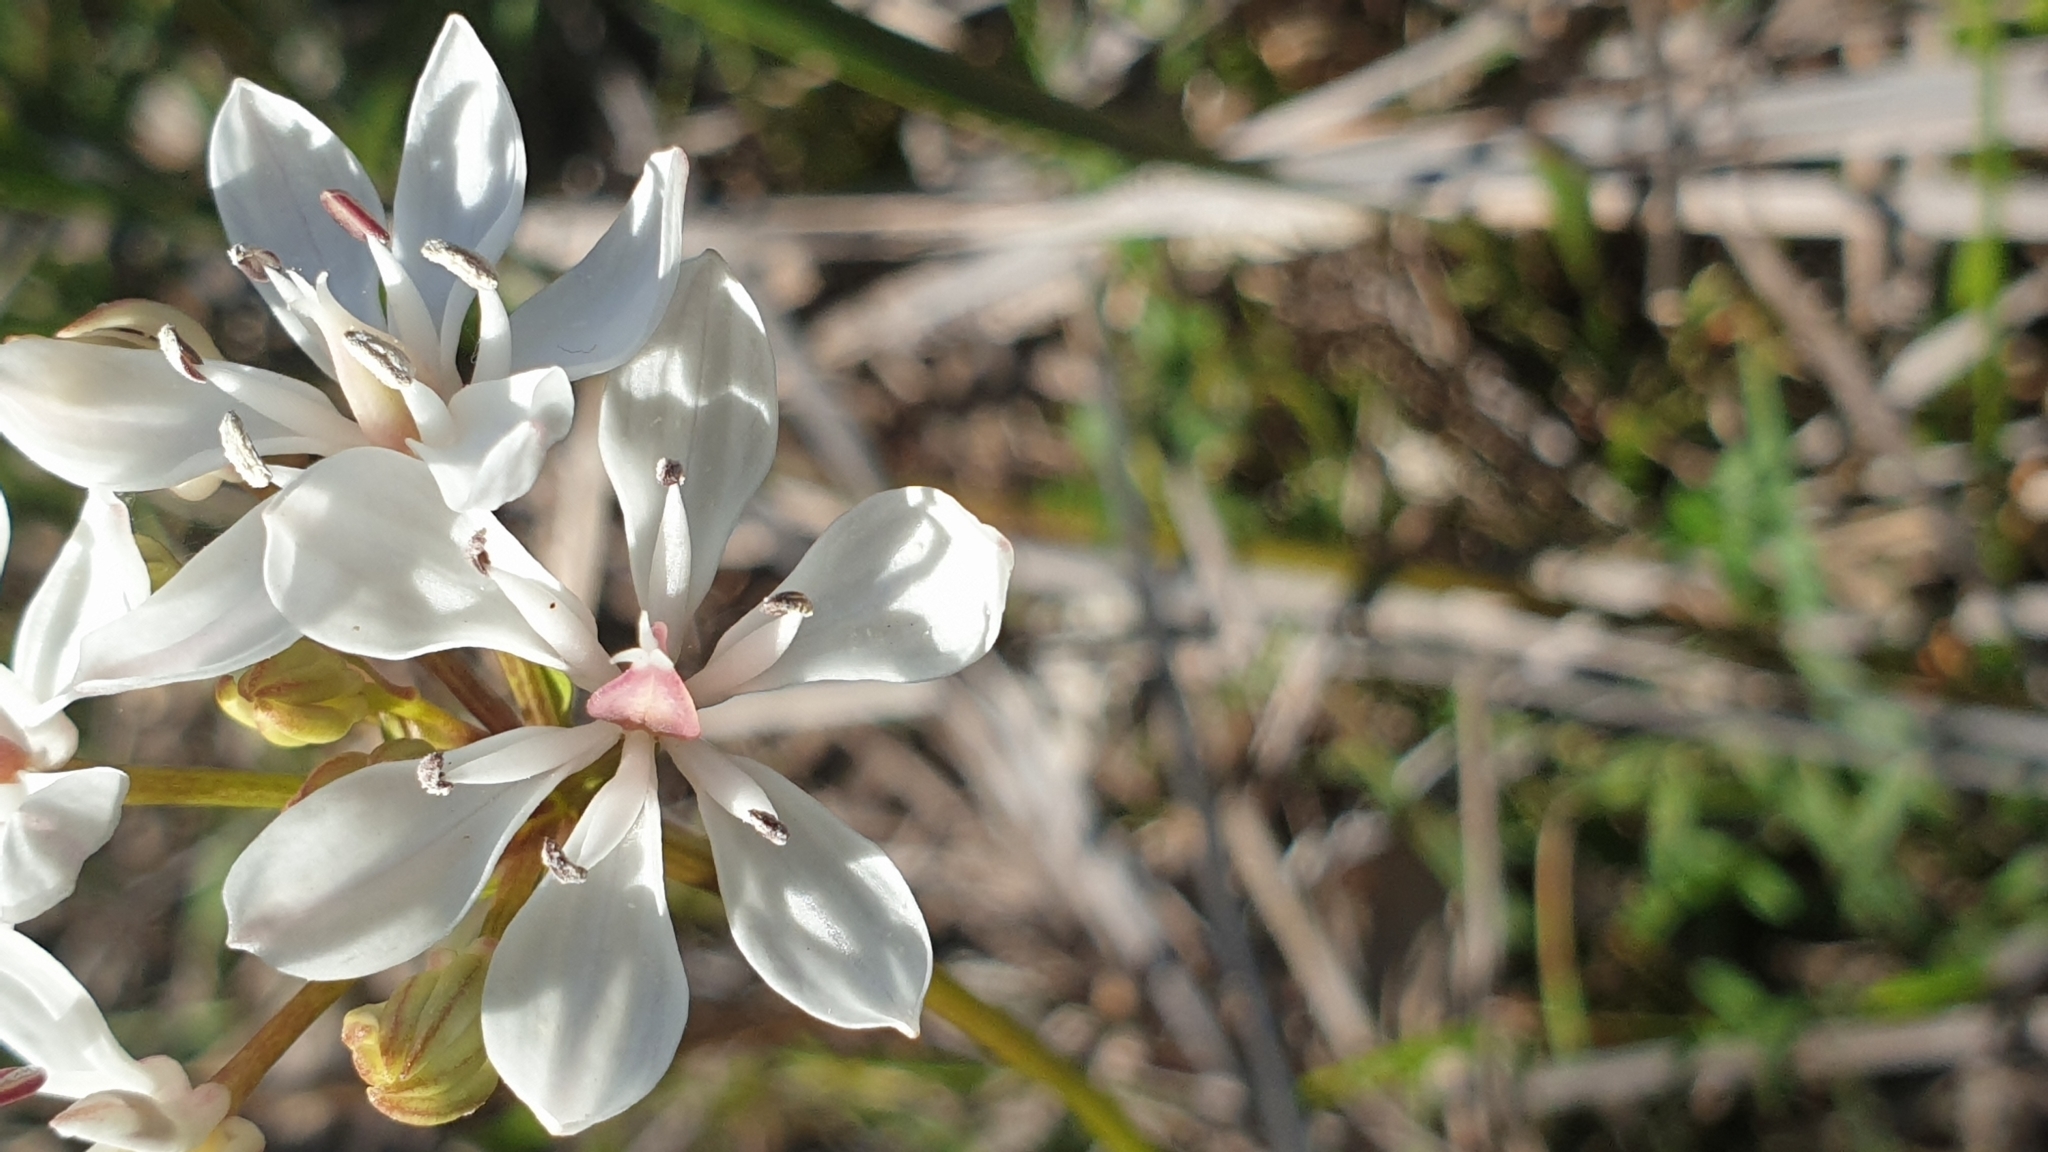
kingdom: Plantae
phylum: Tracheophyta
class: Liliopsida
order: Liliales
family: Colchicaceae
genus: Burchardia
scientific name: Burchardia umbellata
